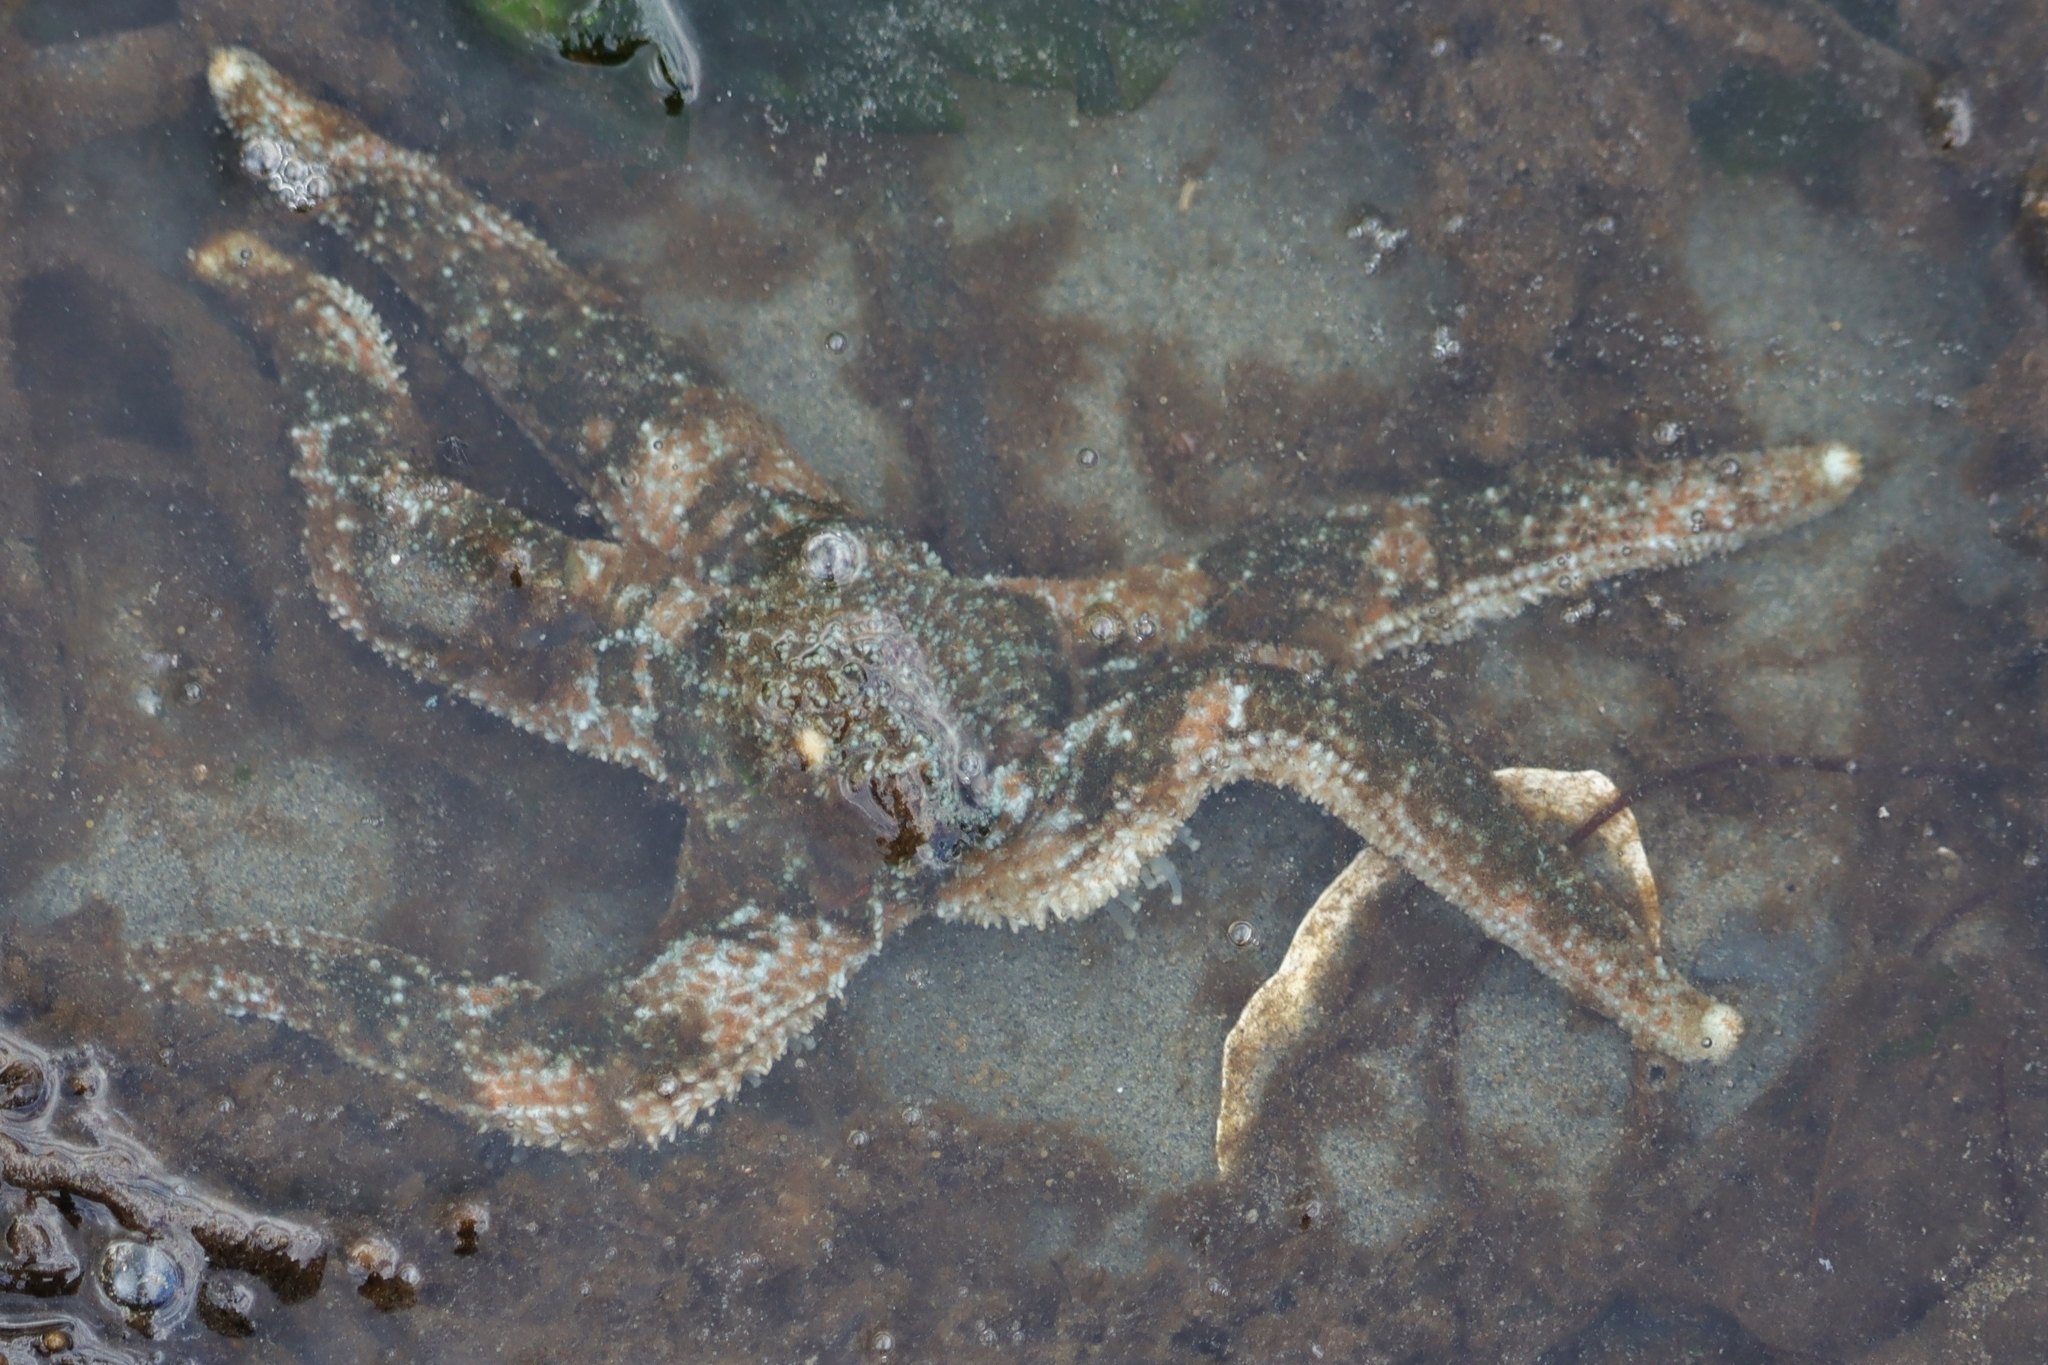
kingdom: Animalia
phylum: Echinodermata
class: Asteroidea
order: Forcipulatida
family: Asteriidae
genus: Evasterias
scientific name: Evasterias troschelii
